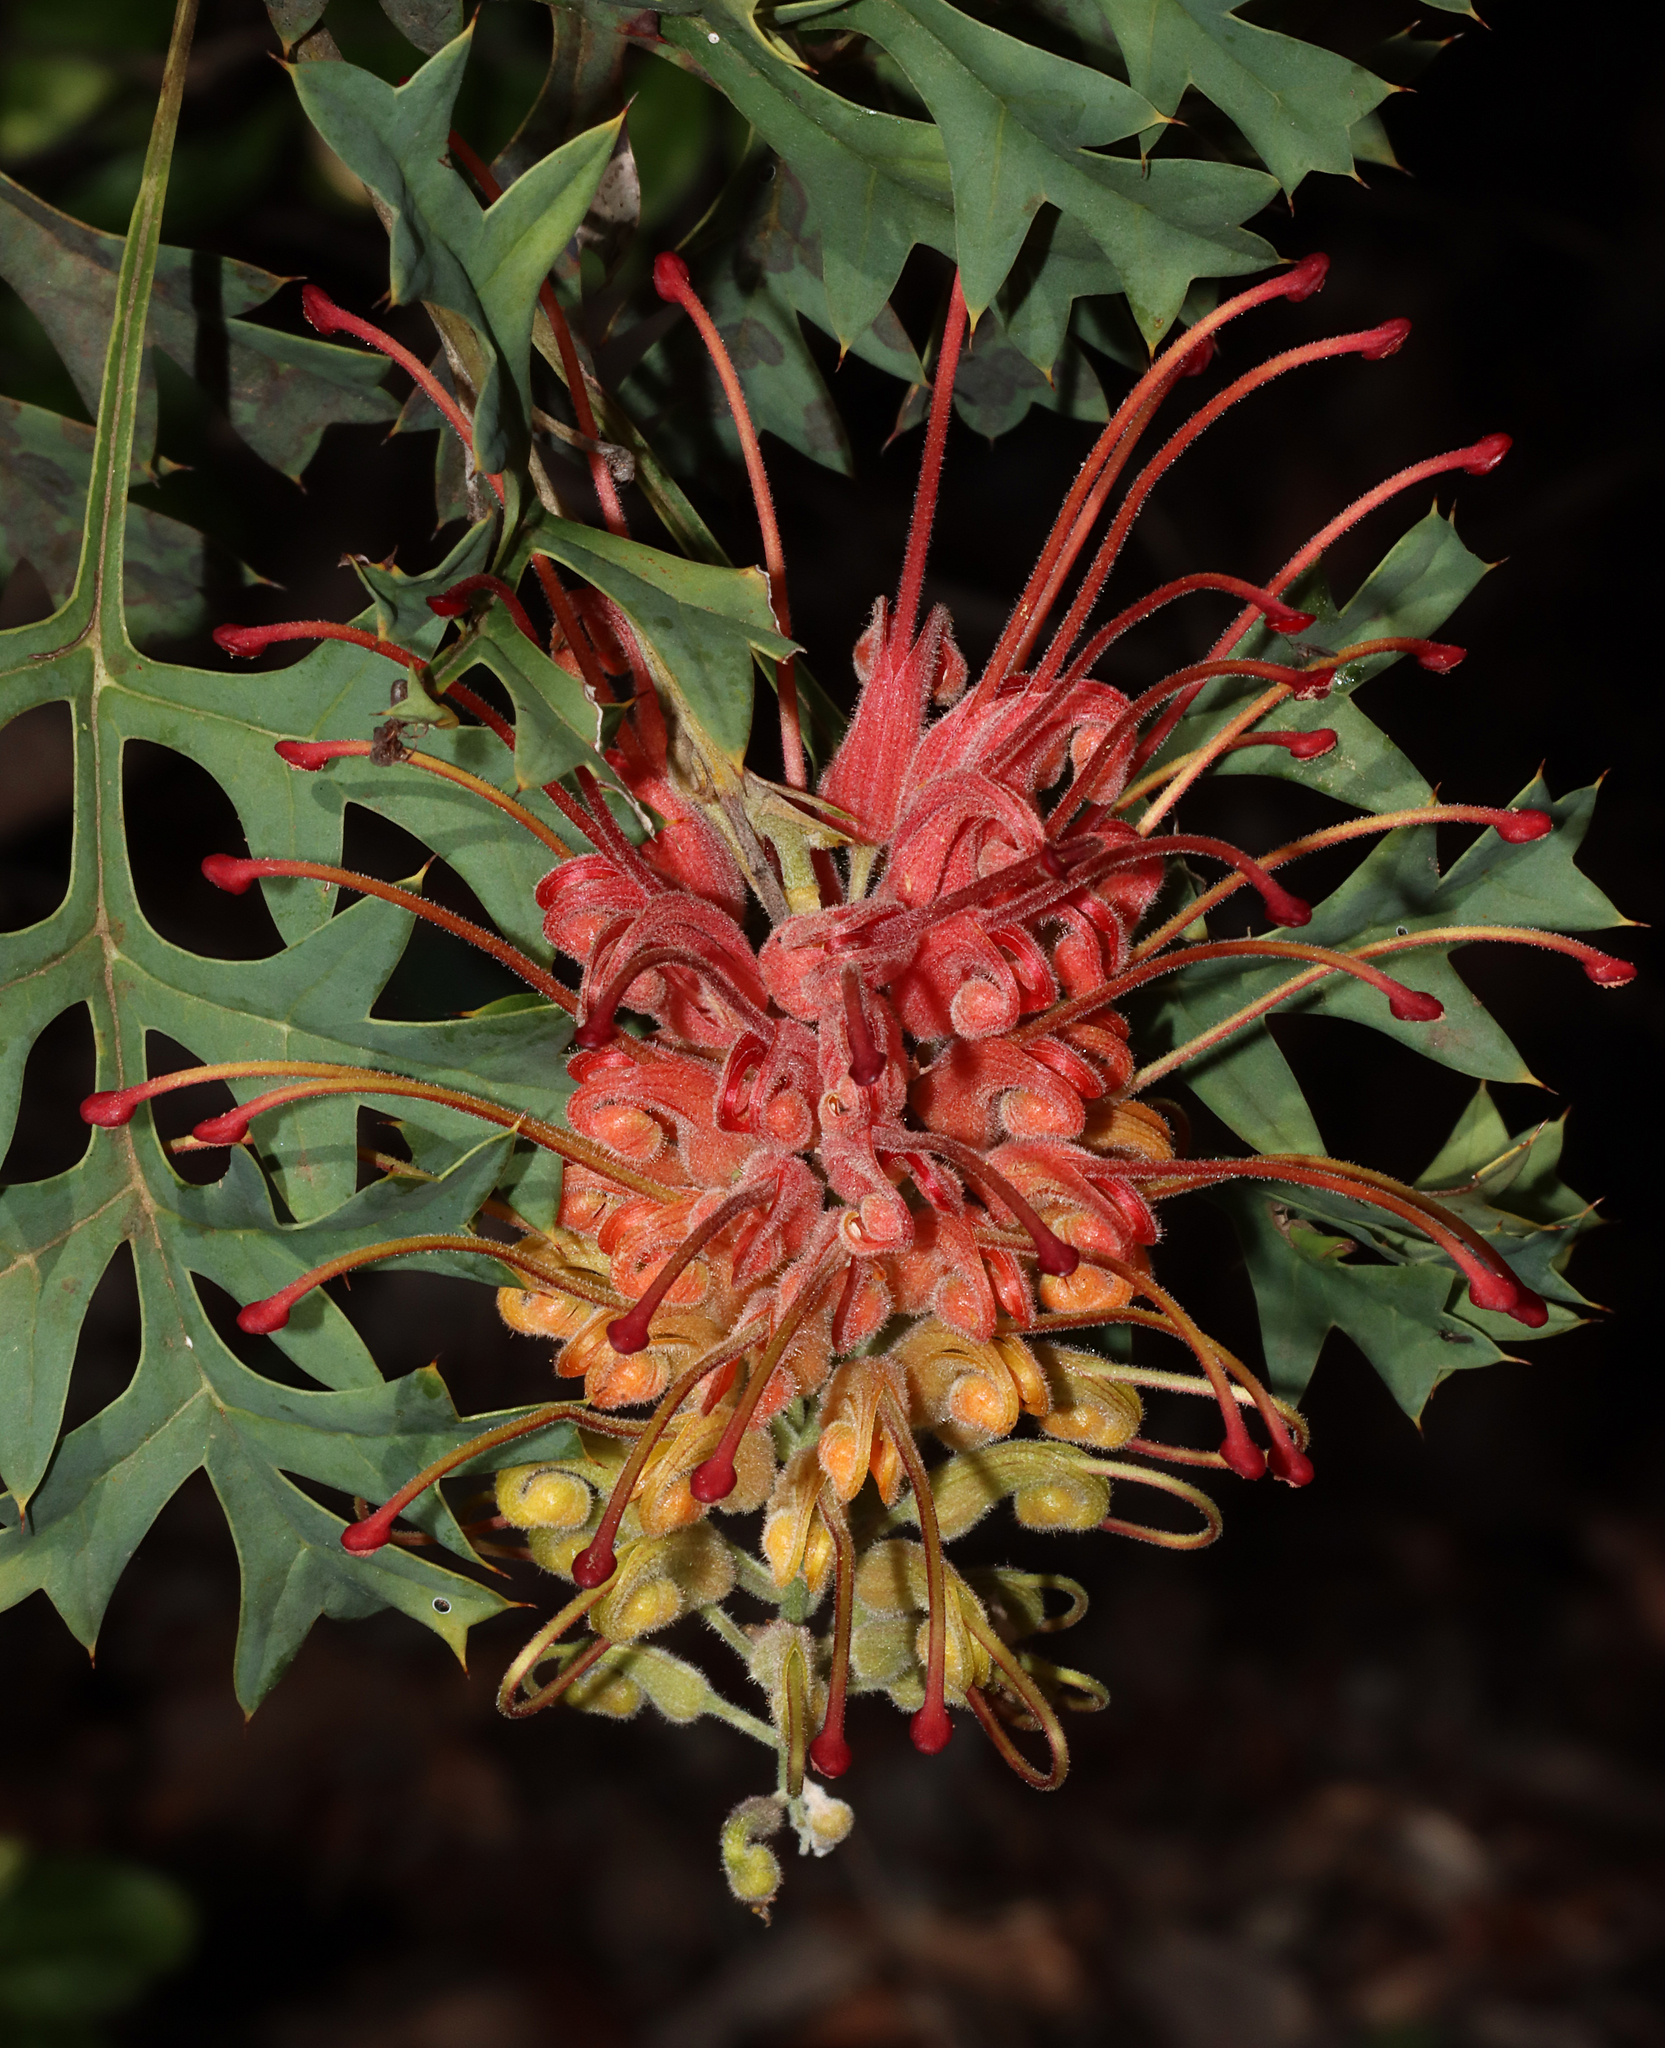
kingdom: Plantae
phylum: Tracheophyta
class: Magnoliopsida
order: Proteales
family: Proteaceae
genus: Grevillea
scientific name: Grevillea bipinnatifida
